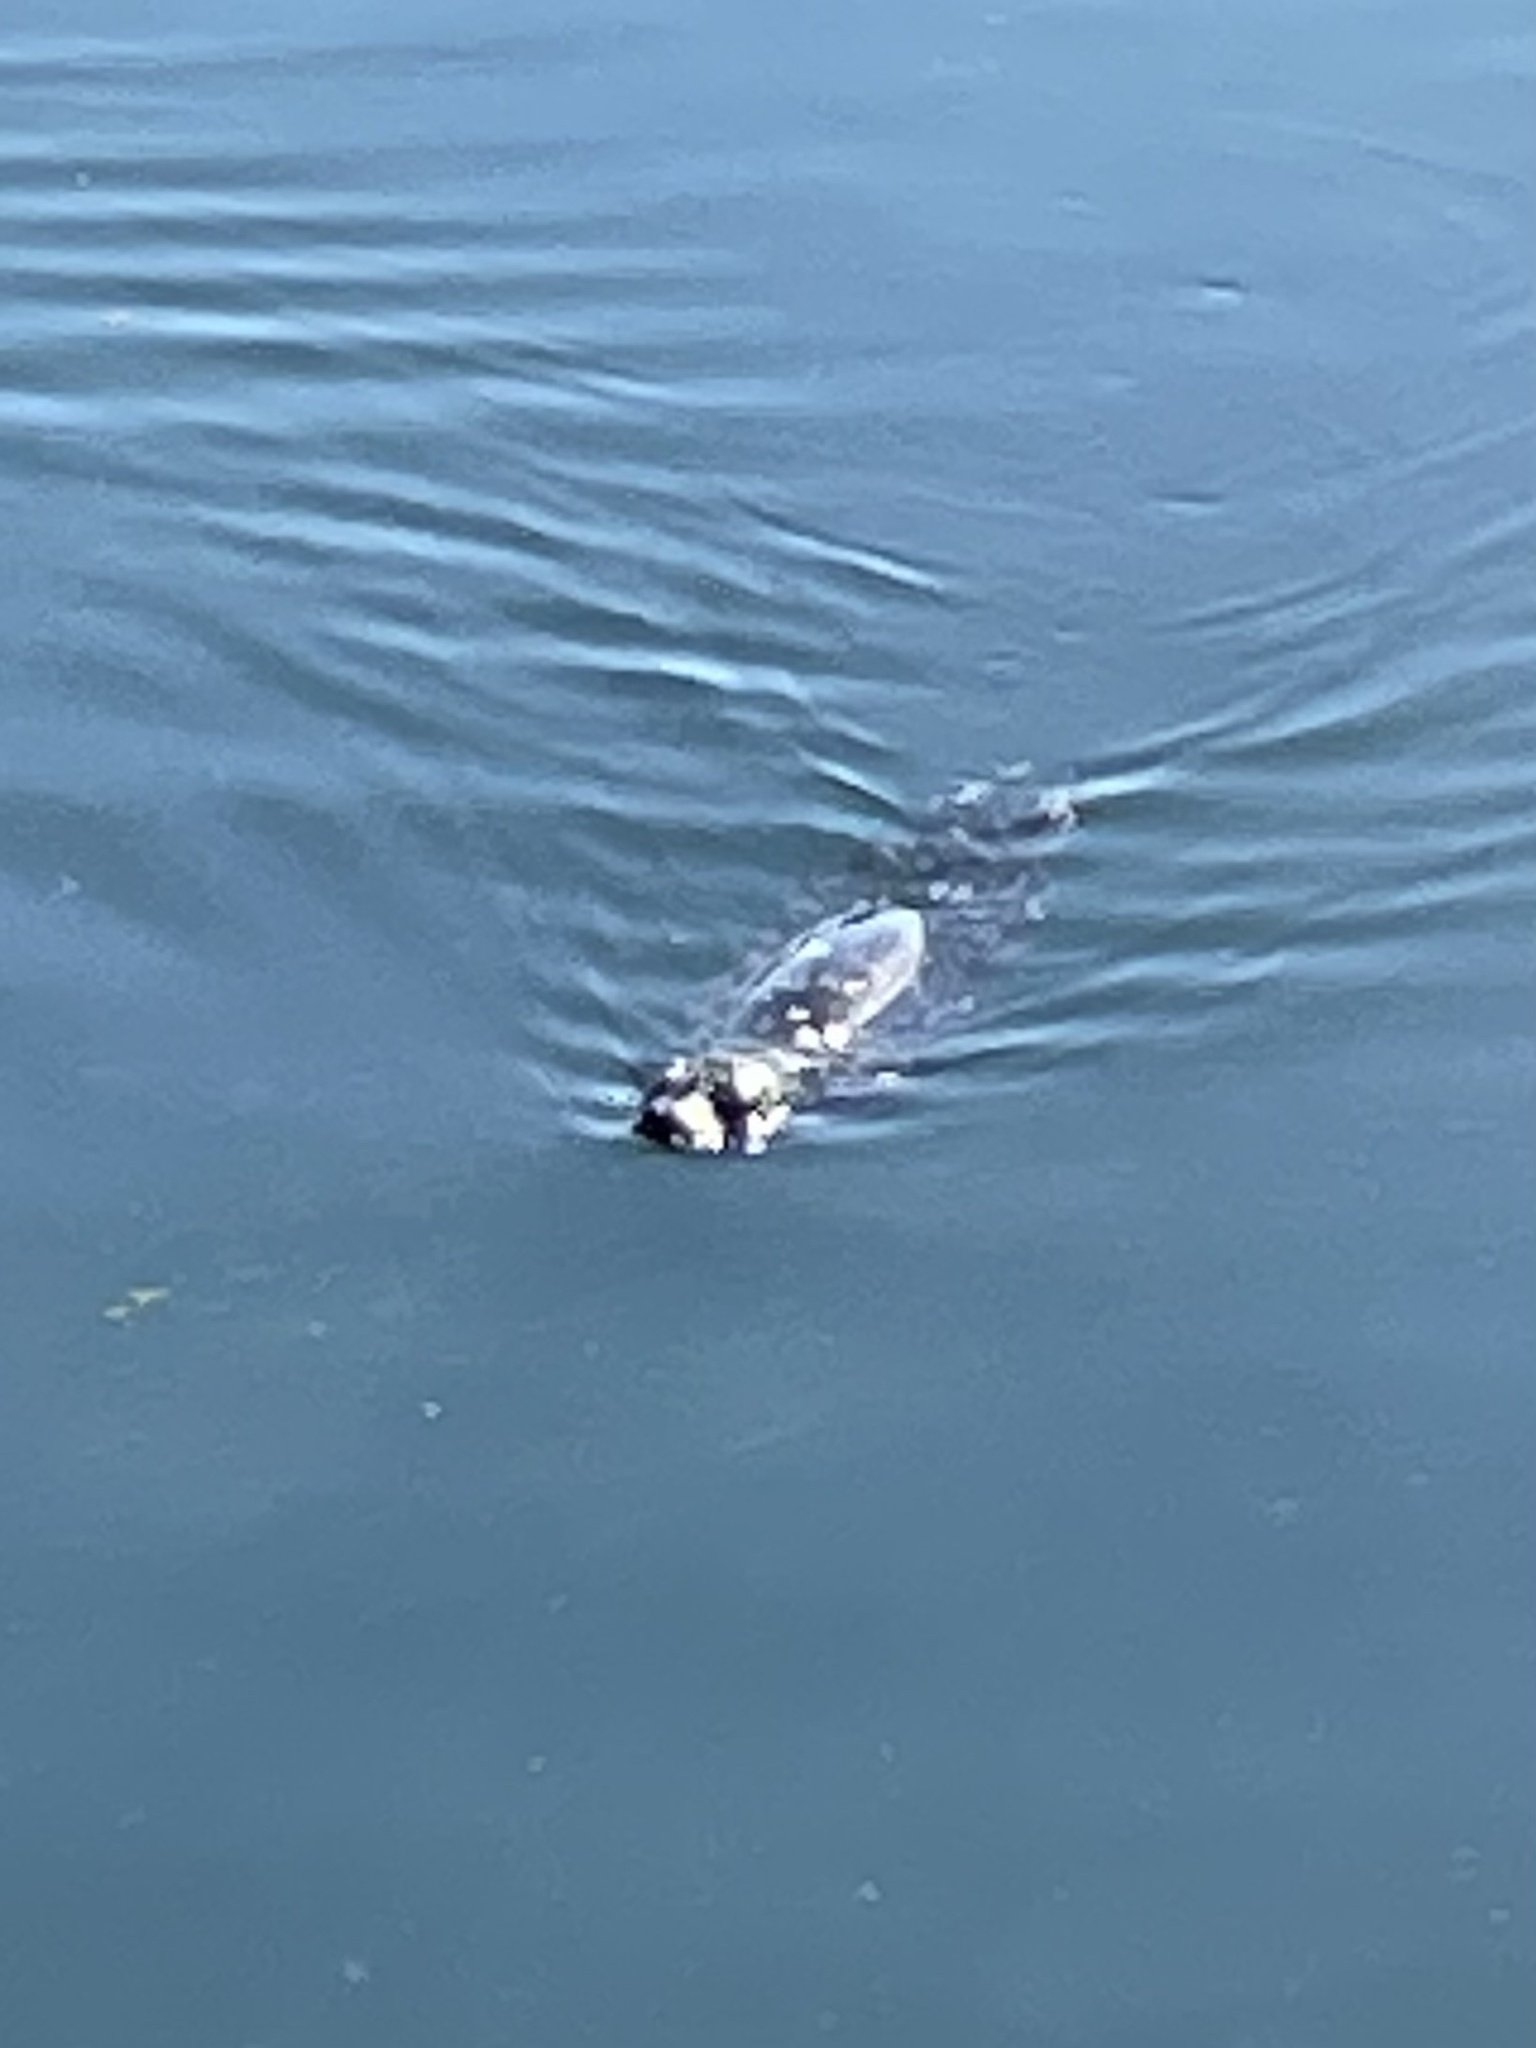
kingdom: Animalia
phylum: Chordata
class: Mammalia
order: Carnivora
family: Phocidae
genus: Phoca
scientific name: Phoca vitulina
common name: Harbor seal
